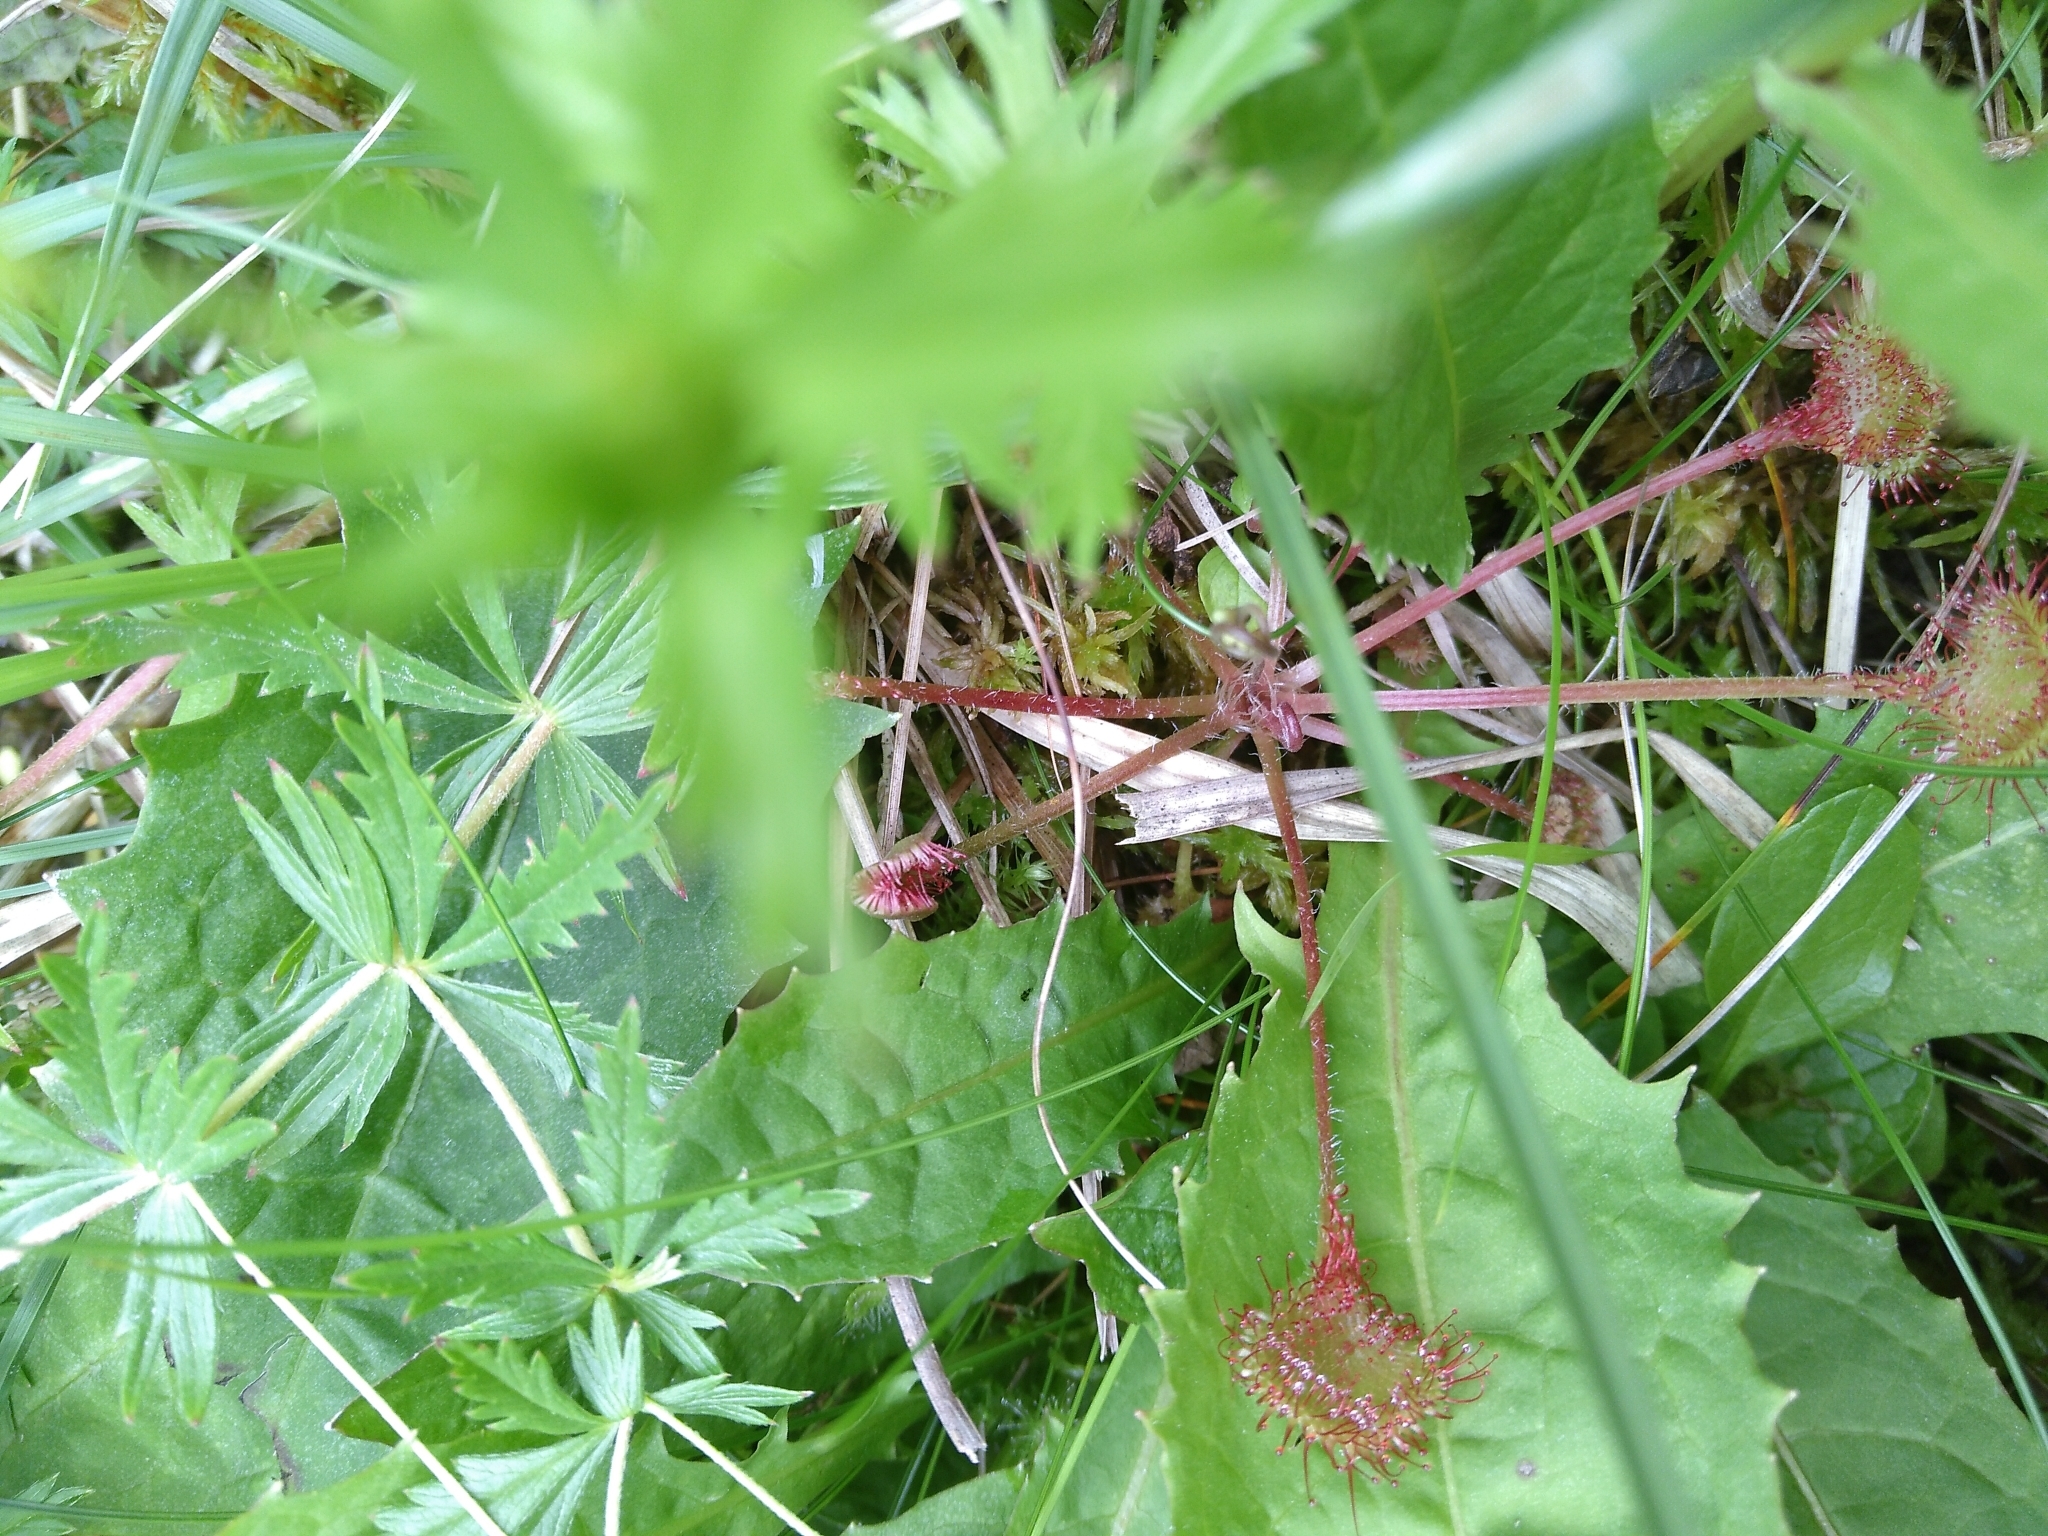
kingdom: Plantae
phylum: Tracheophyta
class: Magnoliopsida
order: Caryophyllales
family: Droseraceae
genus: Drosera
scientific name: Drosera rotundifolia
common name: Round-leaved sundew
